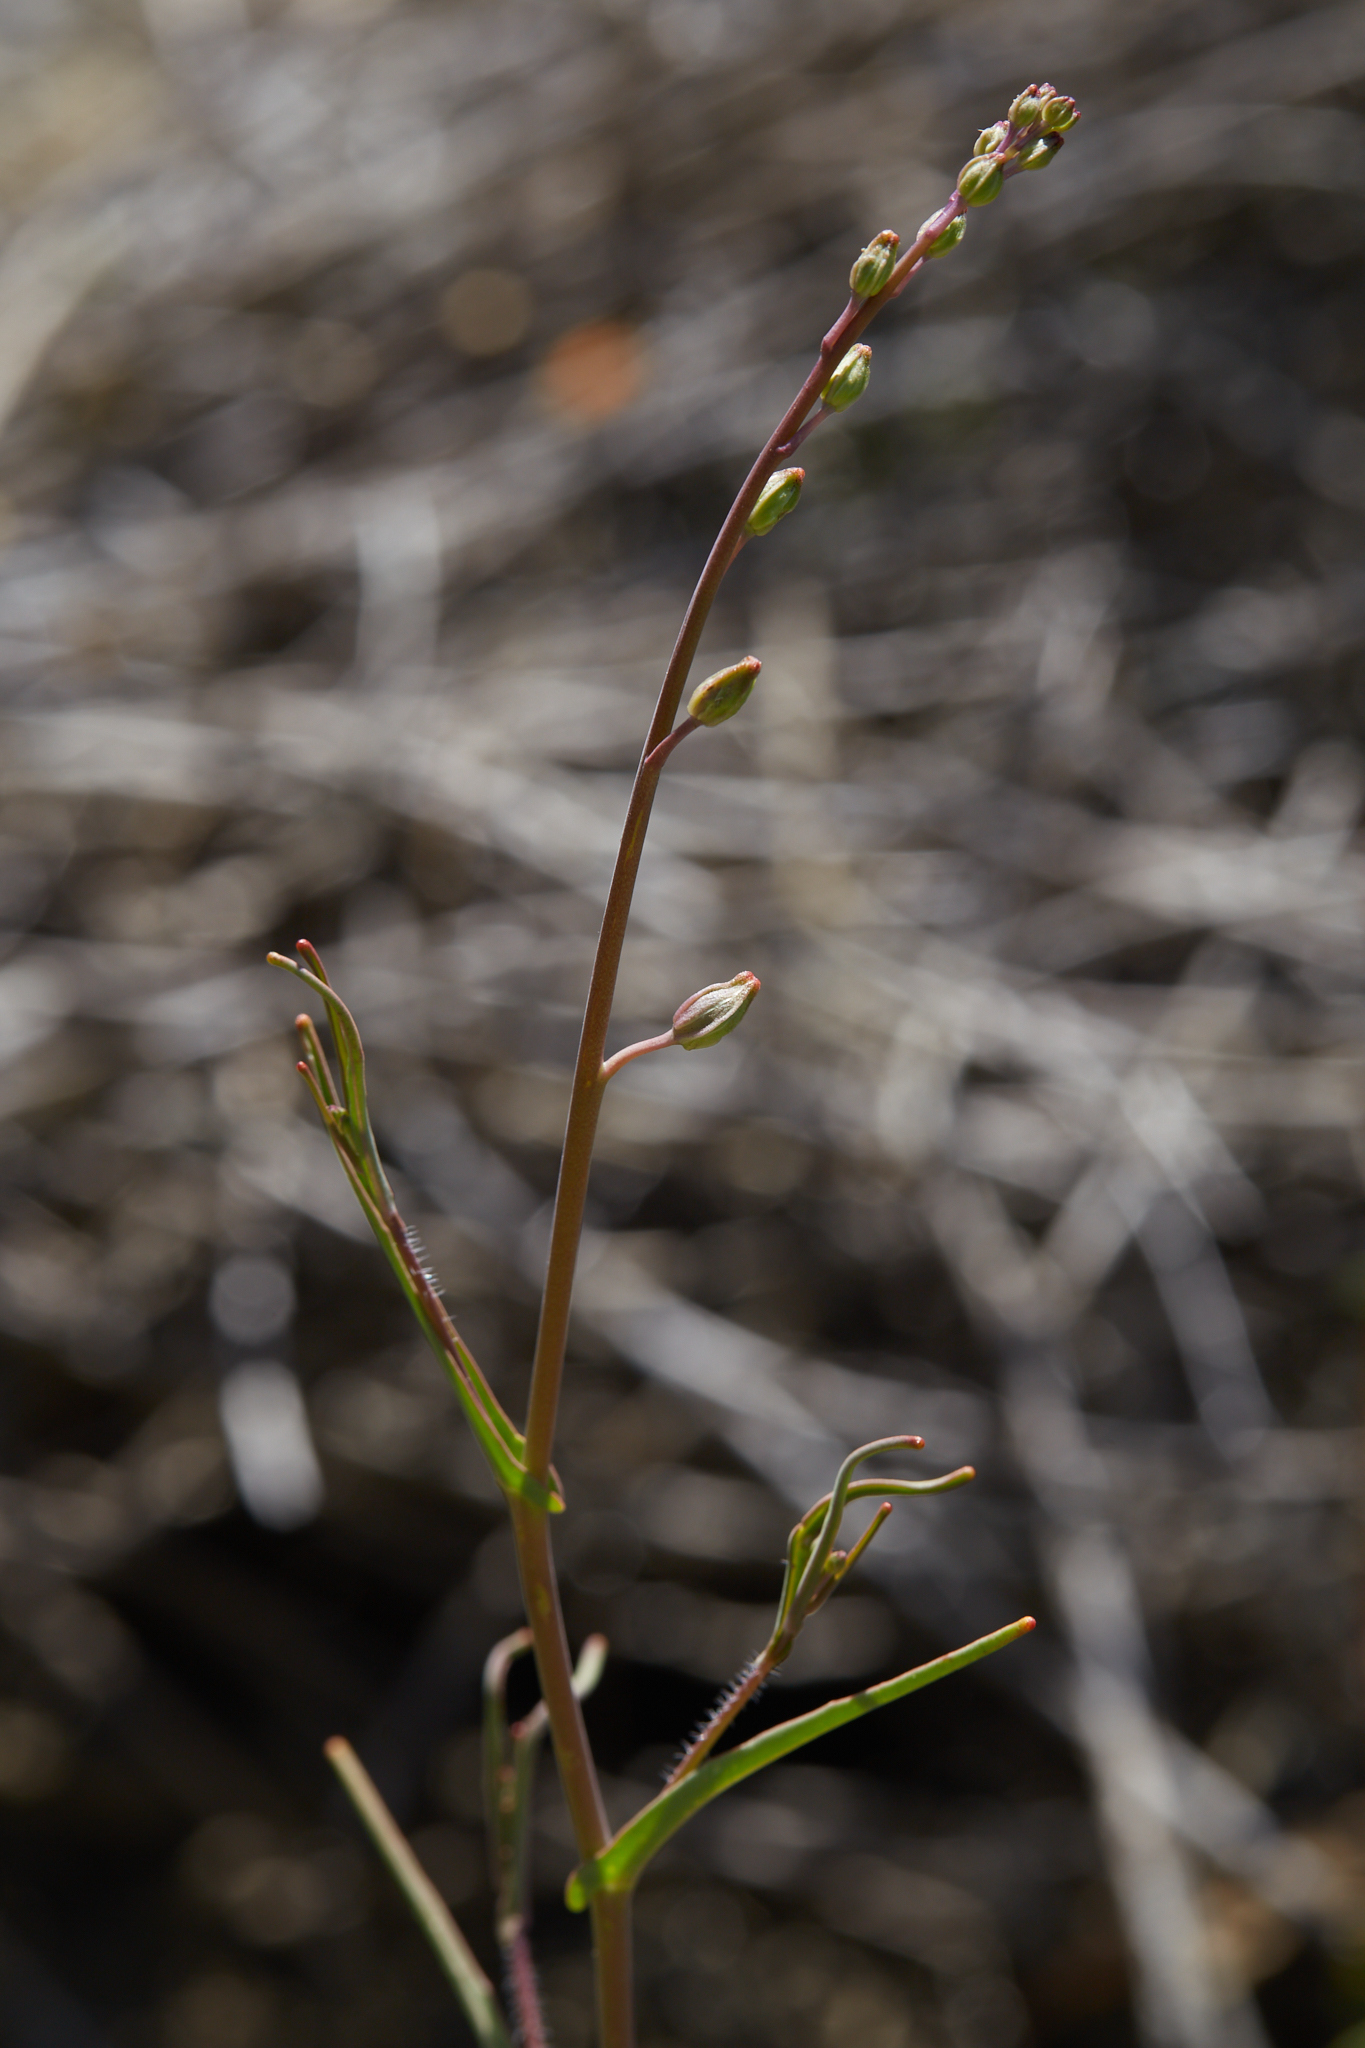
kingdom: Plantae
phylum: Tracheophyta
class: Magnoliopsida
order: Brassicales
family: Brassicaceae
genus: Streptanthus
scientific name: Streptanthus glandulosus
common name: Jewel-flower
